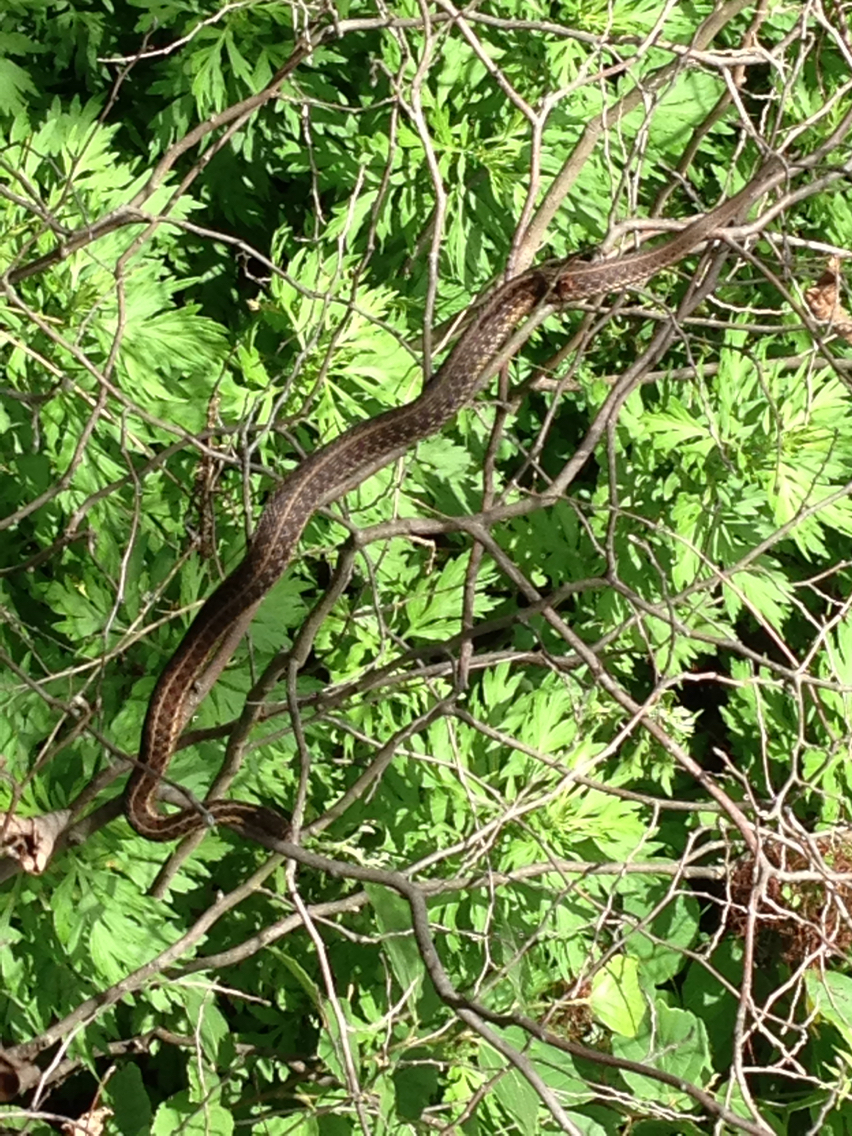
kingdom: Animalia
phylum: Chordata
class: Squamata
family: Colubridae
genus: Thamnophis
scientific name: Thamnophis sirtalis
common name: Common garter snake
